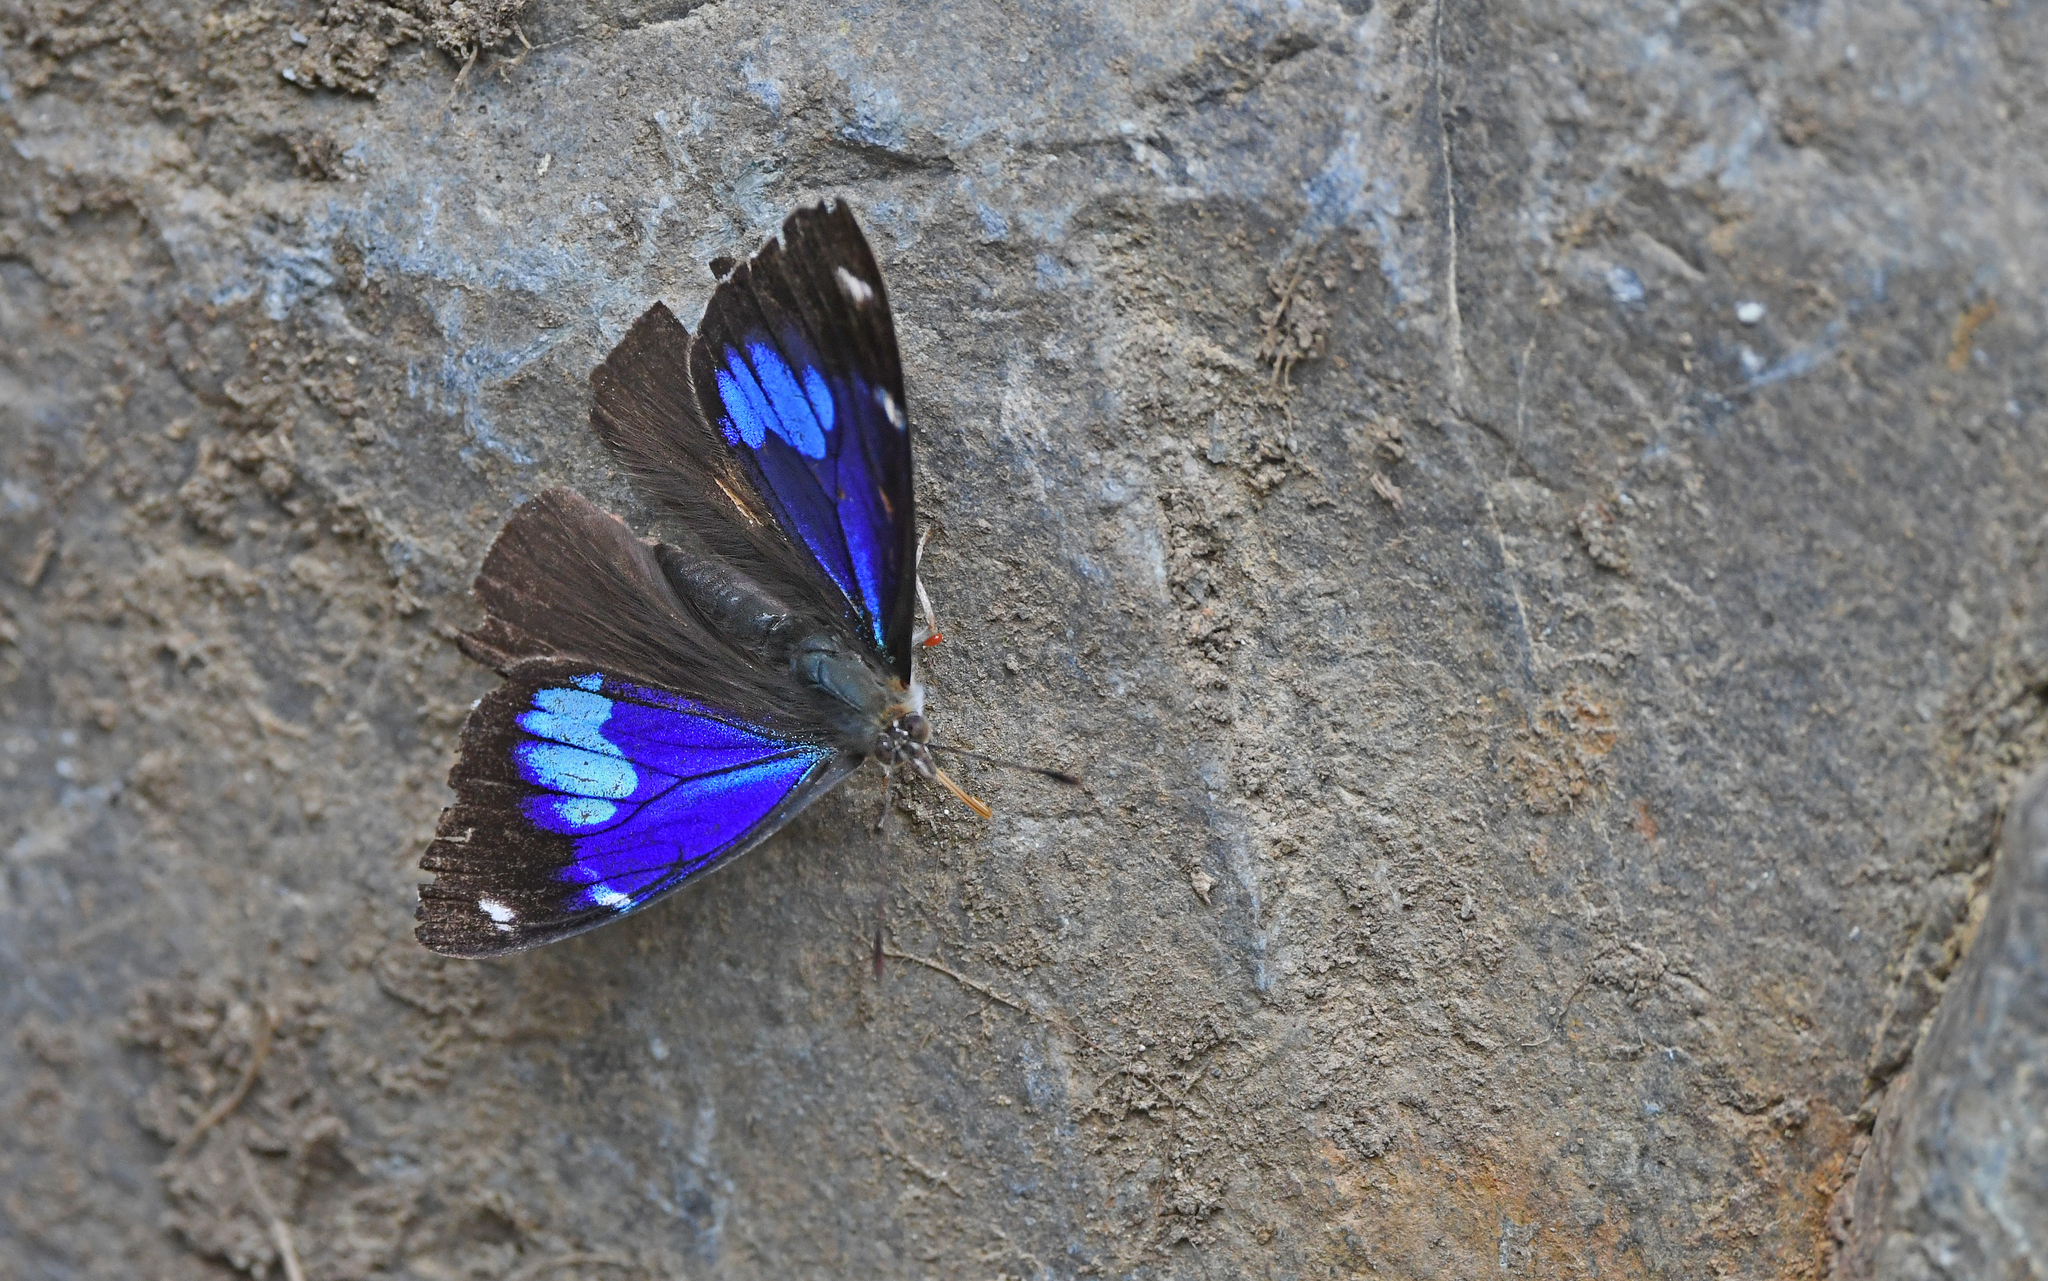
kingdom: Animalia
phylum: Arthropoda
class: Insecta
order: Lepidoptera
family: Nymphalidae
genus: Perisama
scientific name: Perisama calamis
